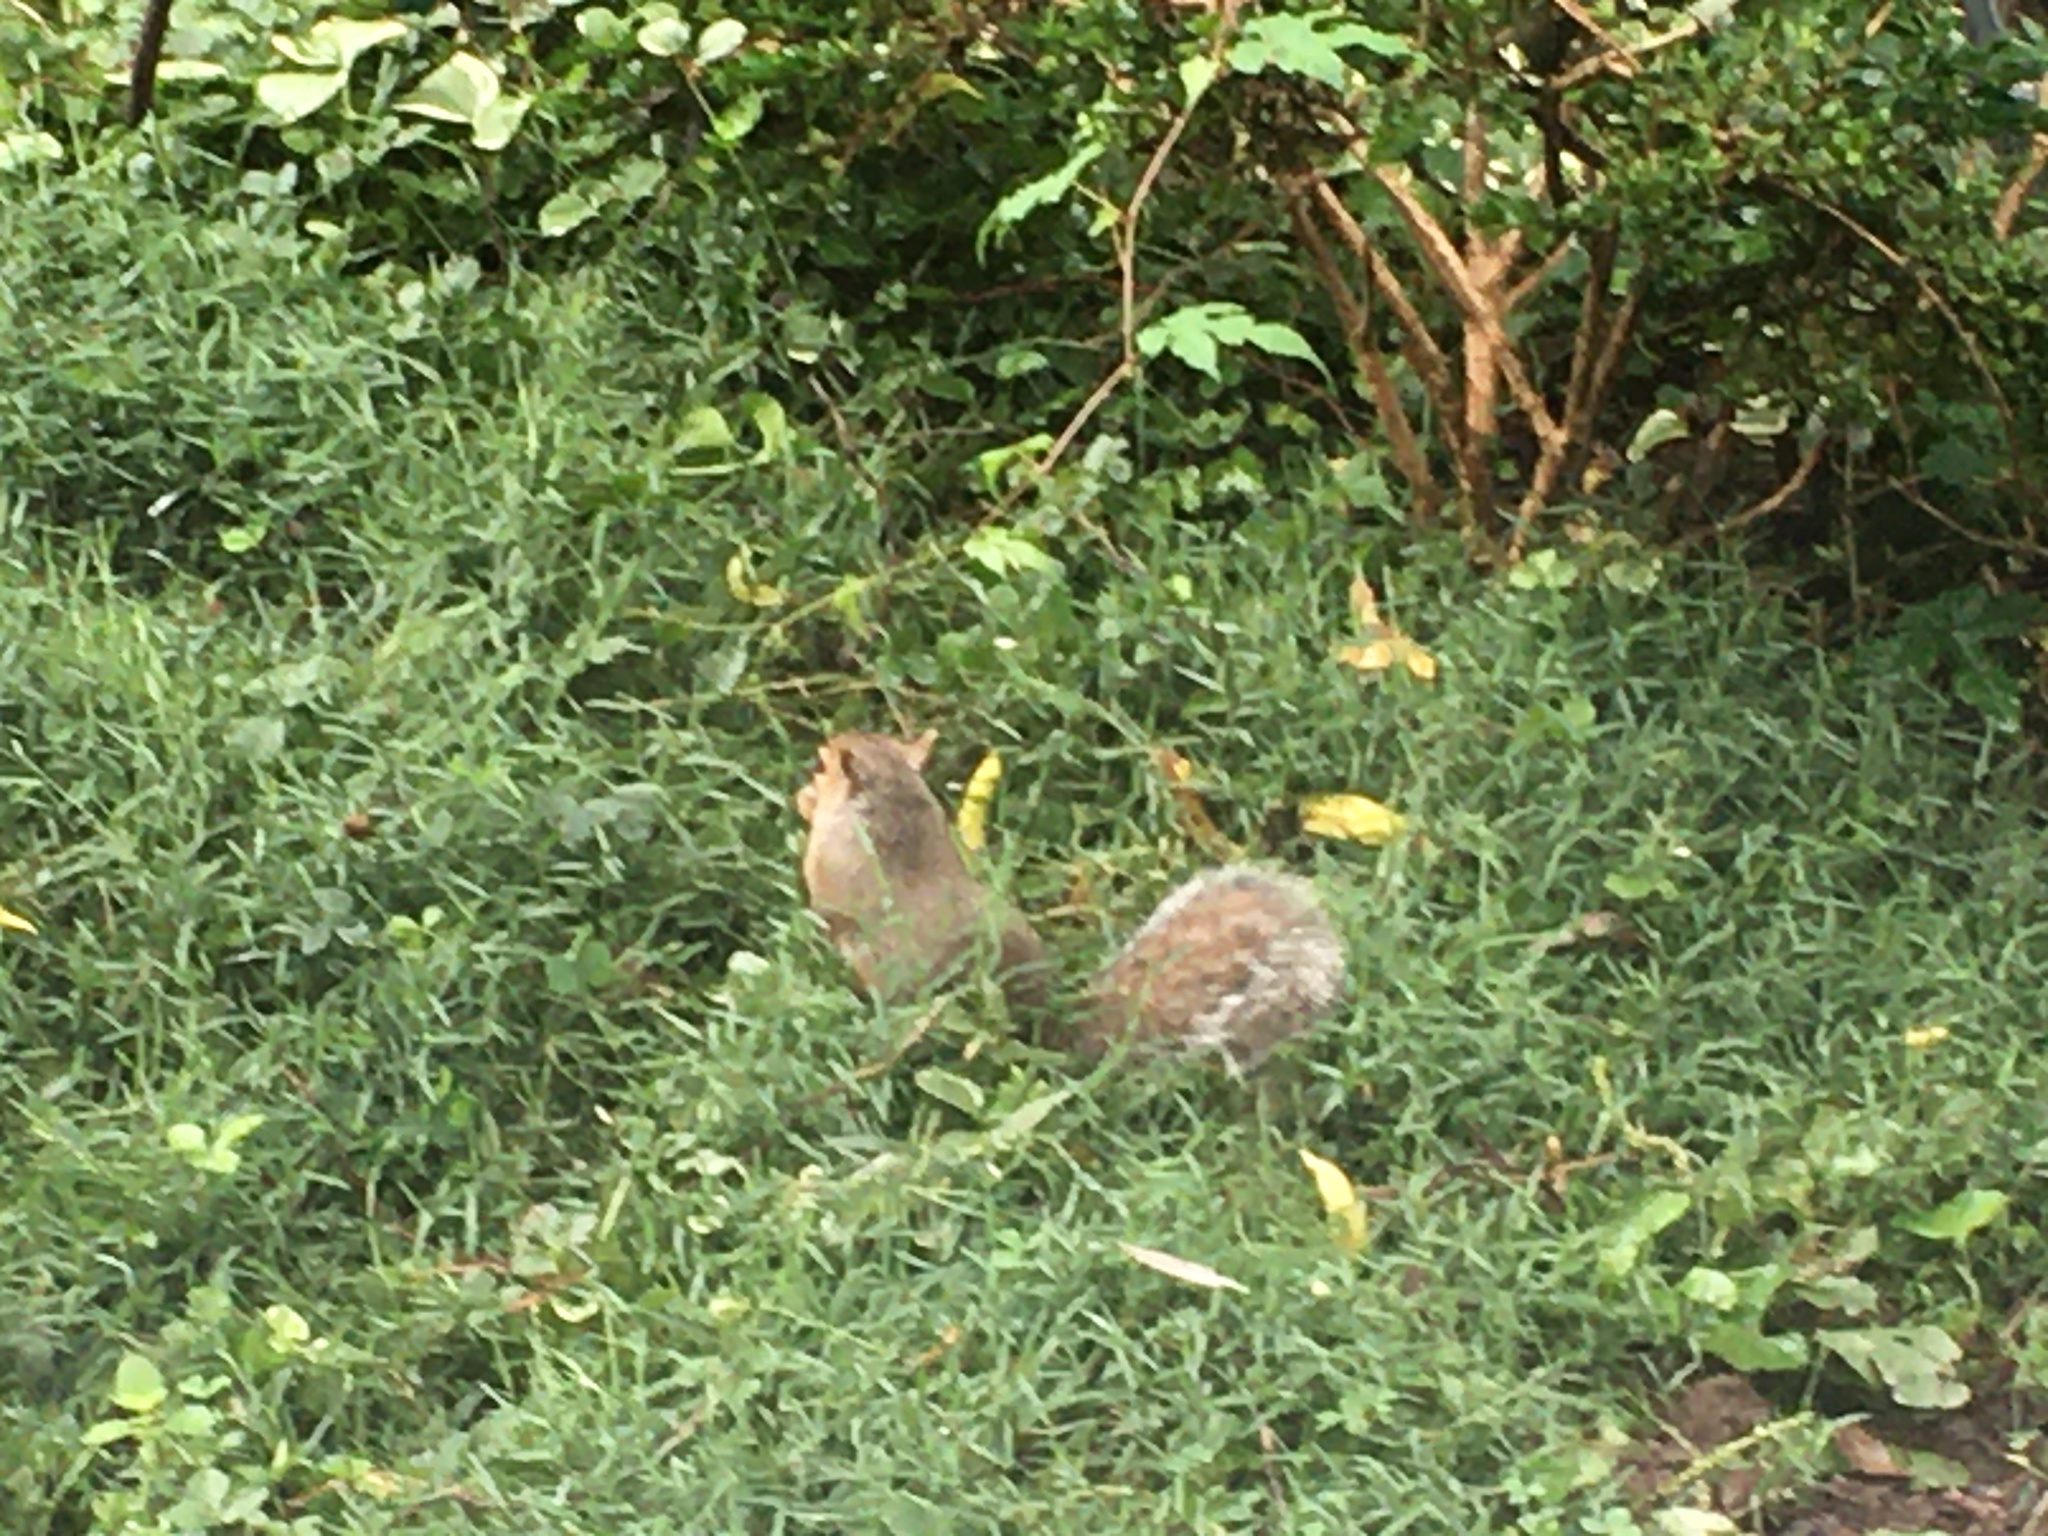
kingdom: Animalia
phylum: Chordata
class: Mammalia
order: Rodentia
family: Sciuridae
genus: Sciurus
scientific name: Sciurus carolinensis
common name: Eastern gray squirrel
